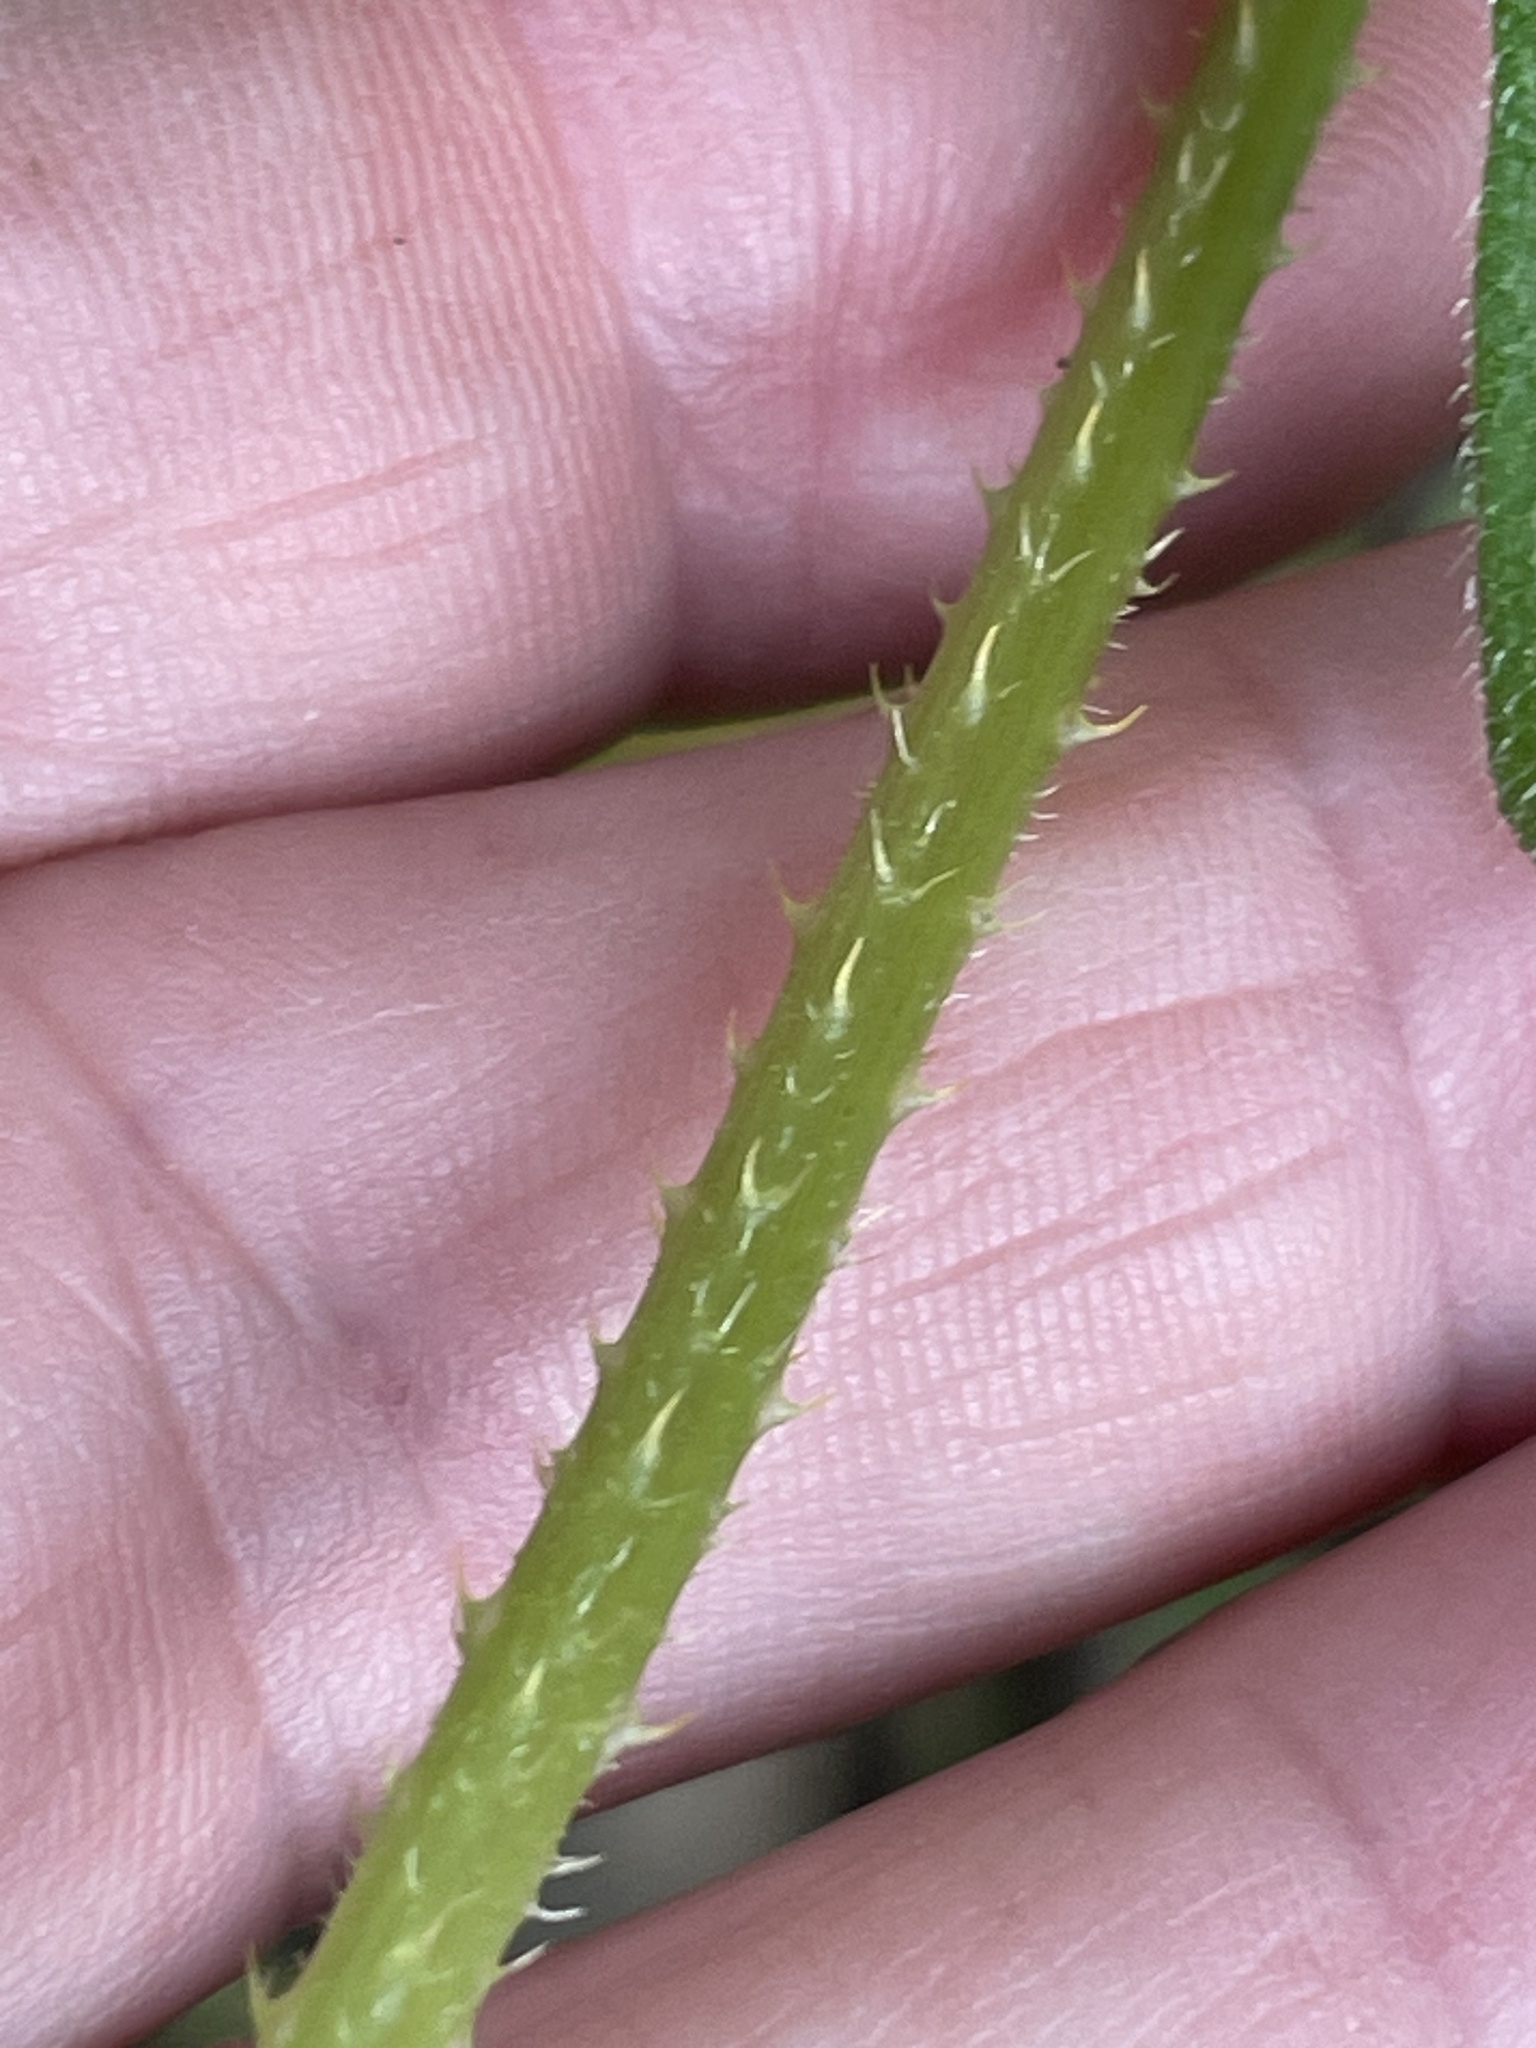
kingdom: Plantae
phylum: Tracheophyta
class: Magnoliopsida
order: Caryophyllales
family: Polygonaceae
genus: Persicaria
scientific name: Persicaria arifolia
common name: Halberd-leaved tear-thumb
